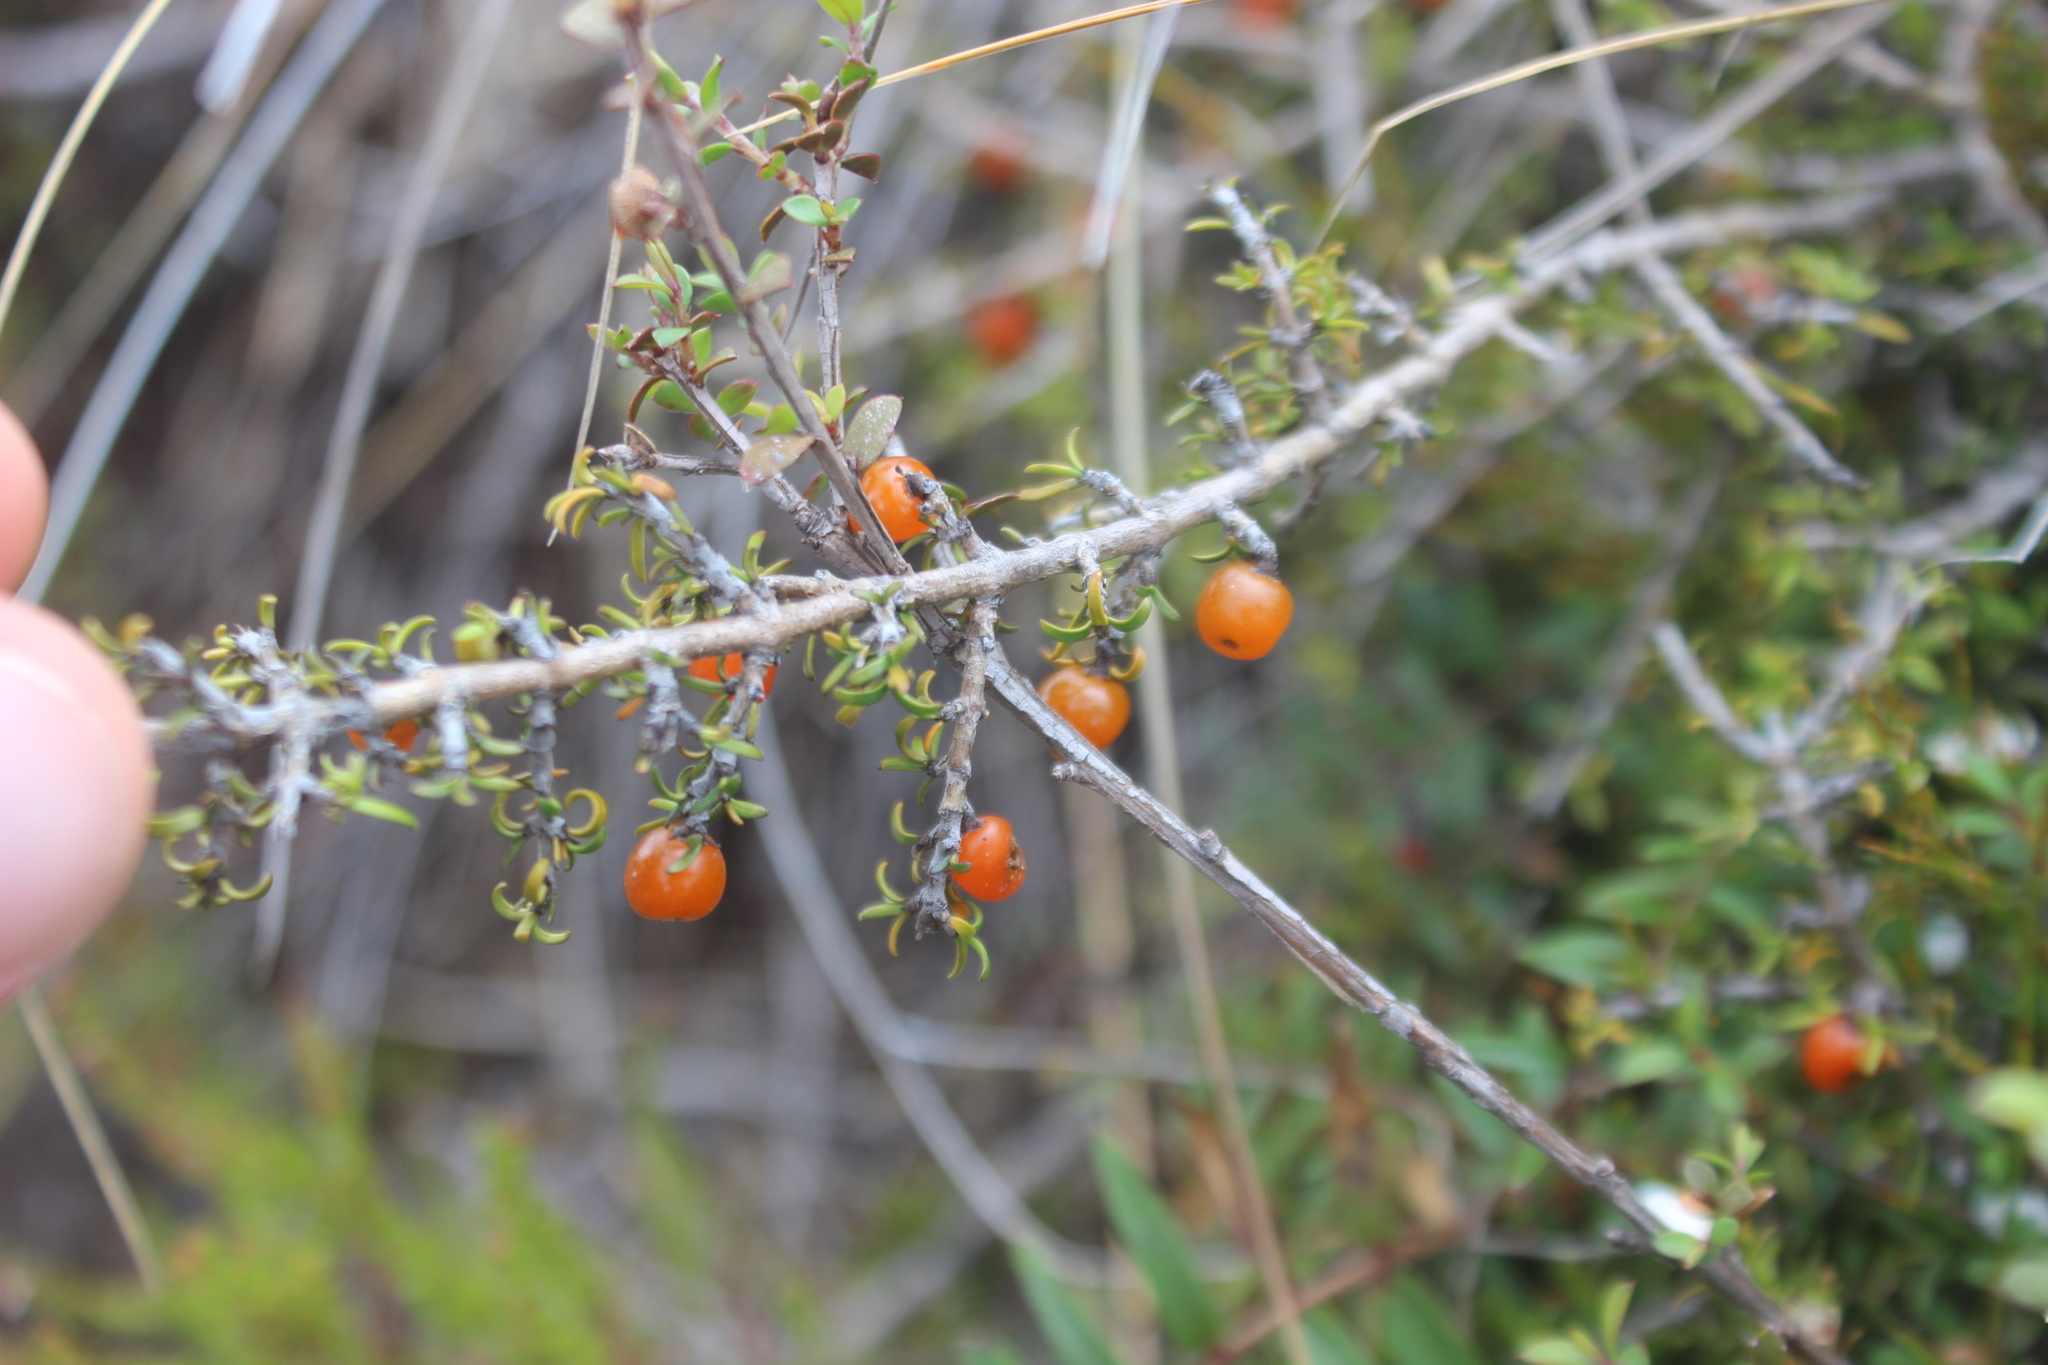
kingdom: Plantae
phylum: Tracheophyta
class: Magnoliopsida
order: Gentianales
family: Rubiaceae
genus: Coprosma
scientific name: Coprosma cheesemanii
